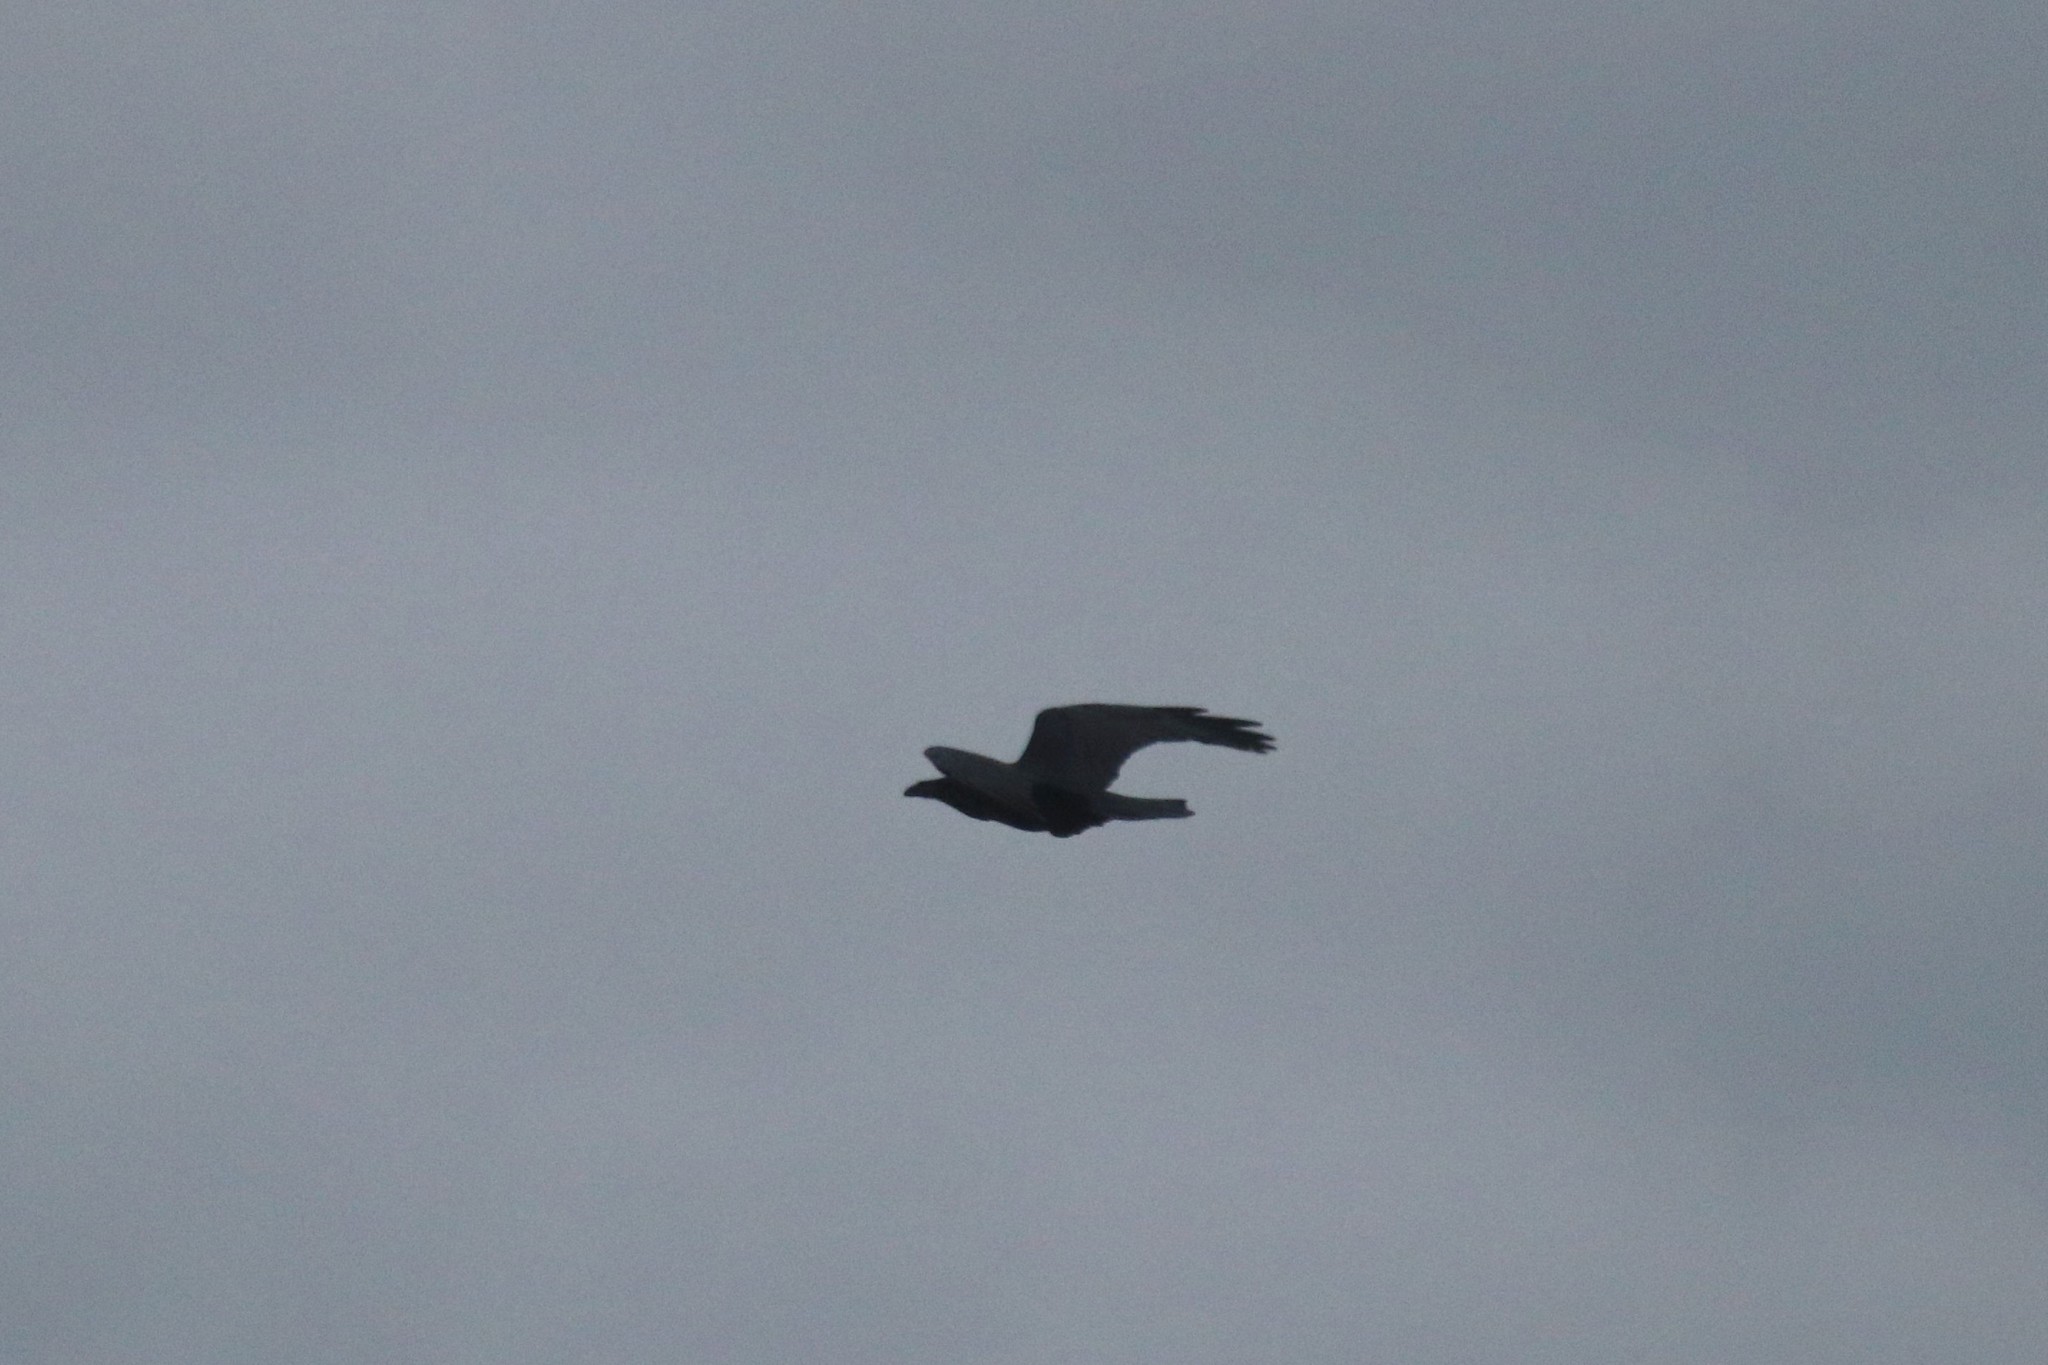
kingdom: Animalia
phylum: Chordata
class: Aves
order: Passeriformes
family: Corvidae
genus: Corvus
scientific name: Corvus corax
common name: Common raven
